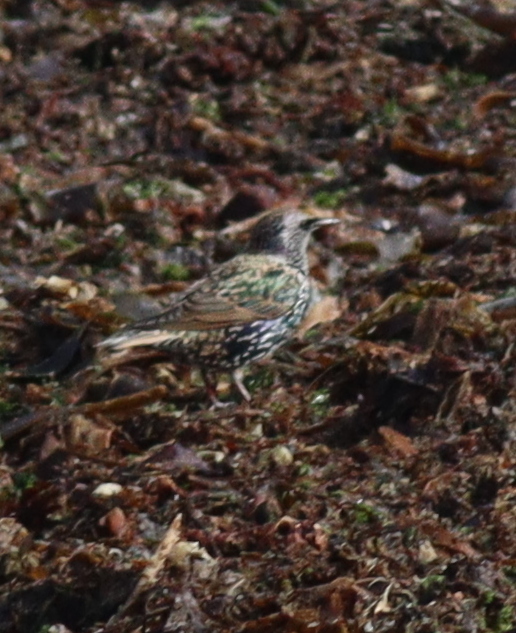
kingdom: Animalia
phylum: Chordata
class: Aves
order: Passeriformes
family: Sturnidae
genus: Sturnus
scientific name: Sturnus vulgaris
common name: Common starling
